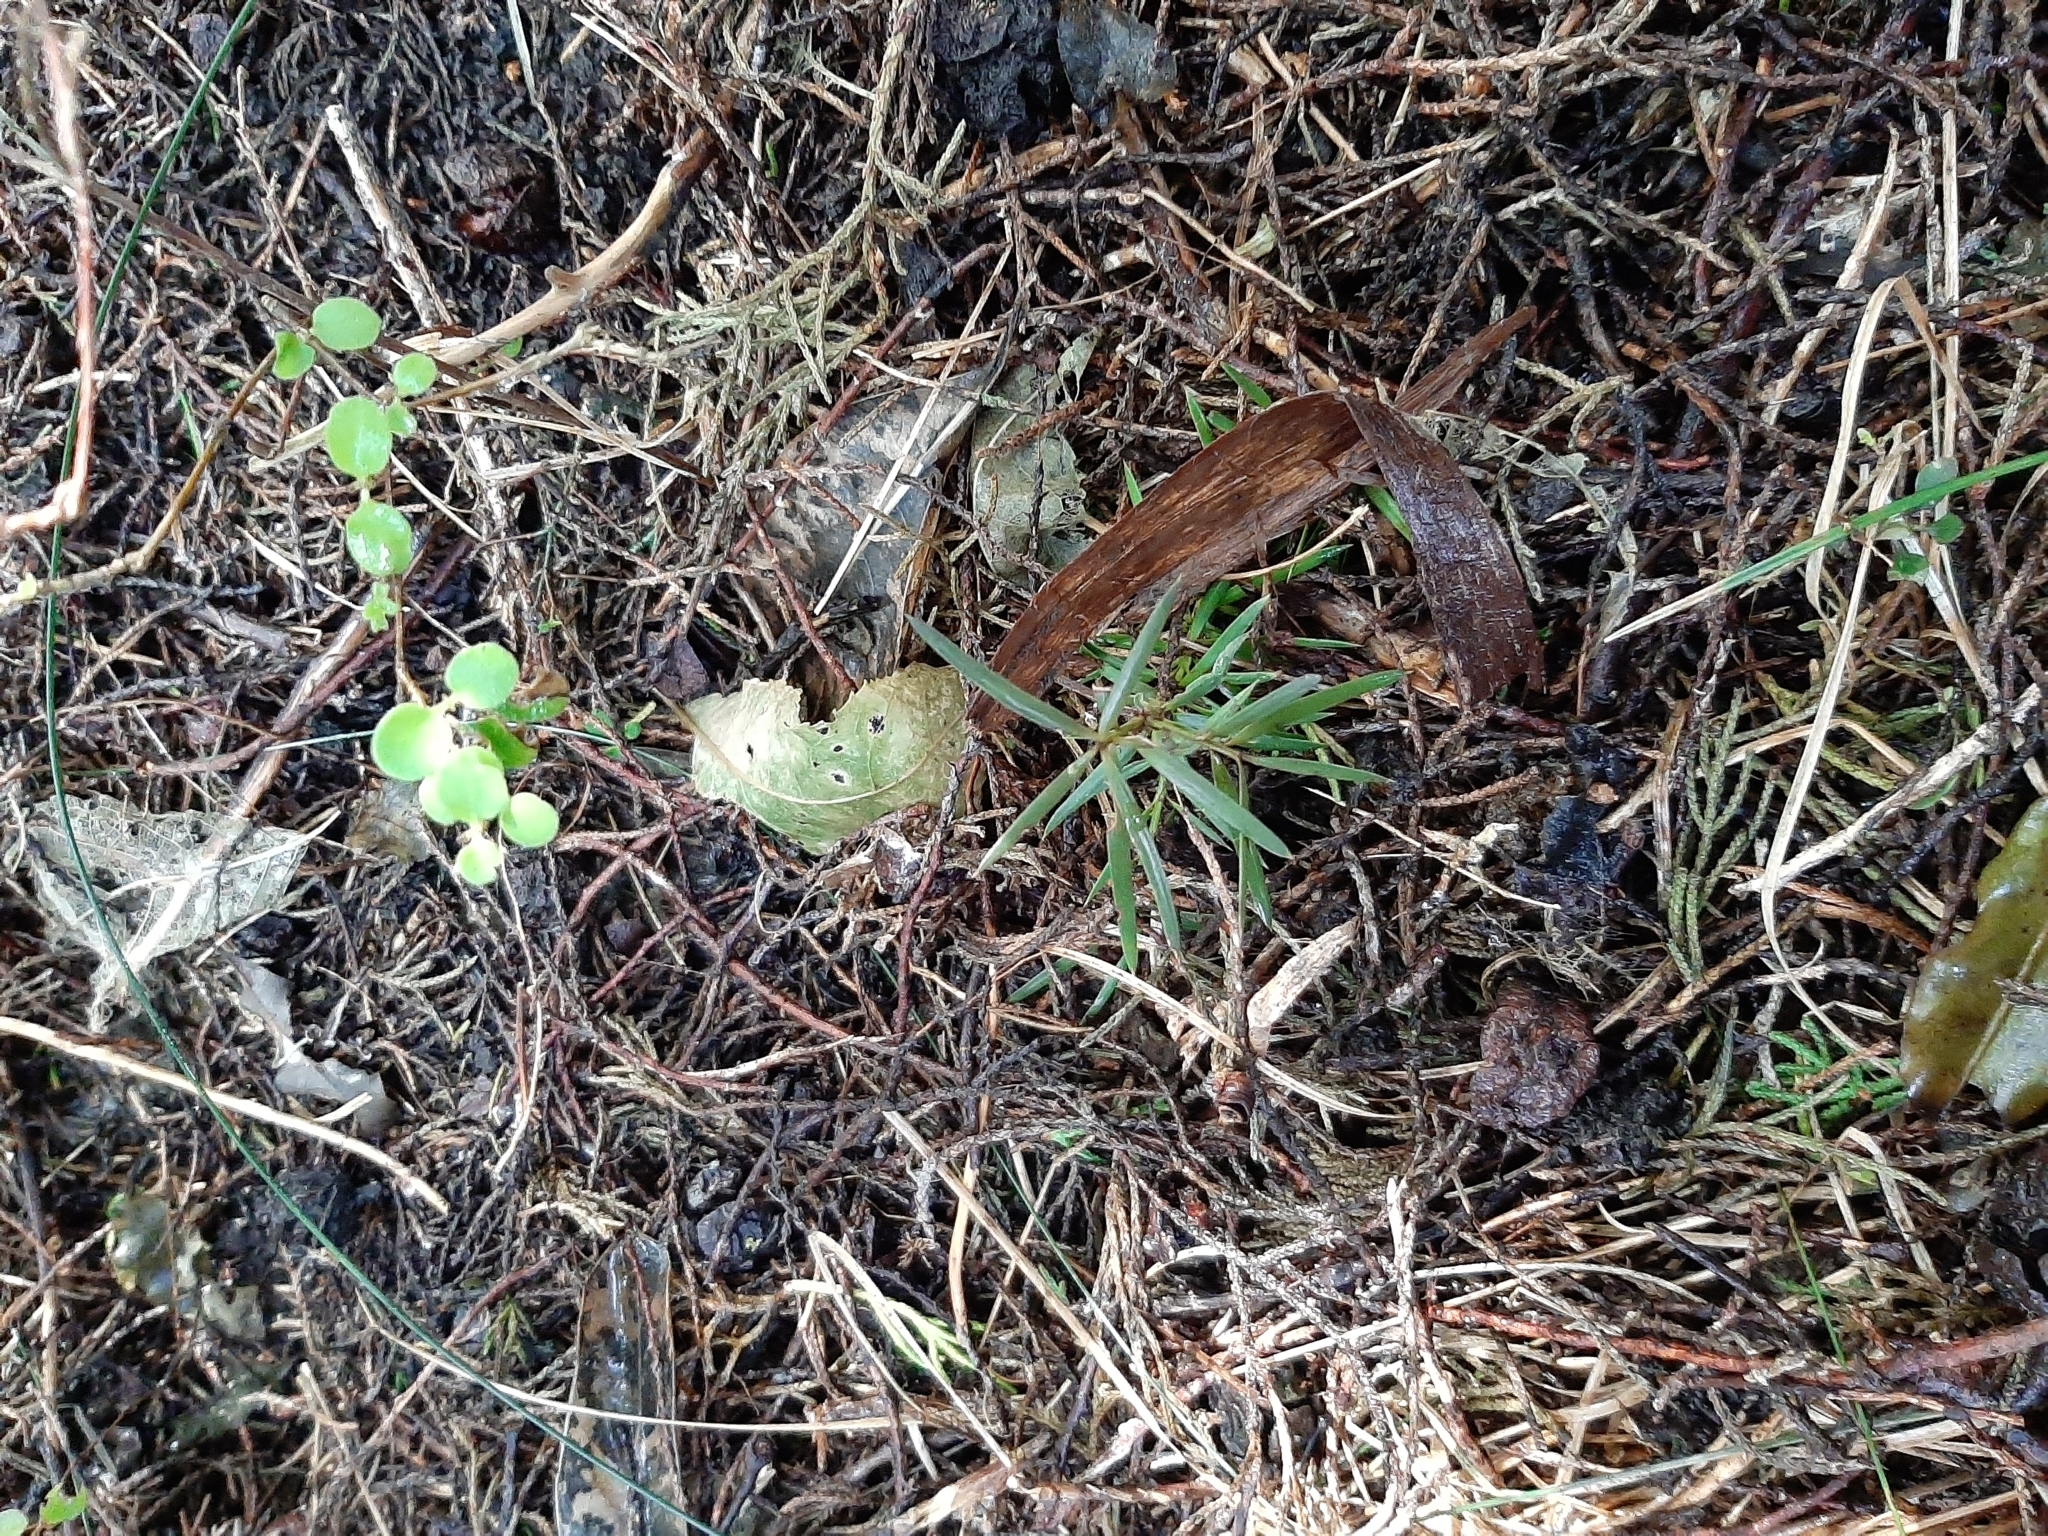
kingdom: Plantae
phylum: Tracheophyta
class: Pinopsida
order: Pinales
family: Podocarpaceae
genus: Podocarpus
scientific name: Podocarpus totara
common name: Totara
